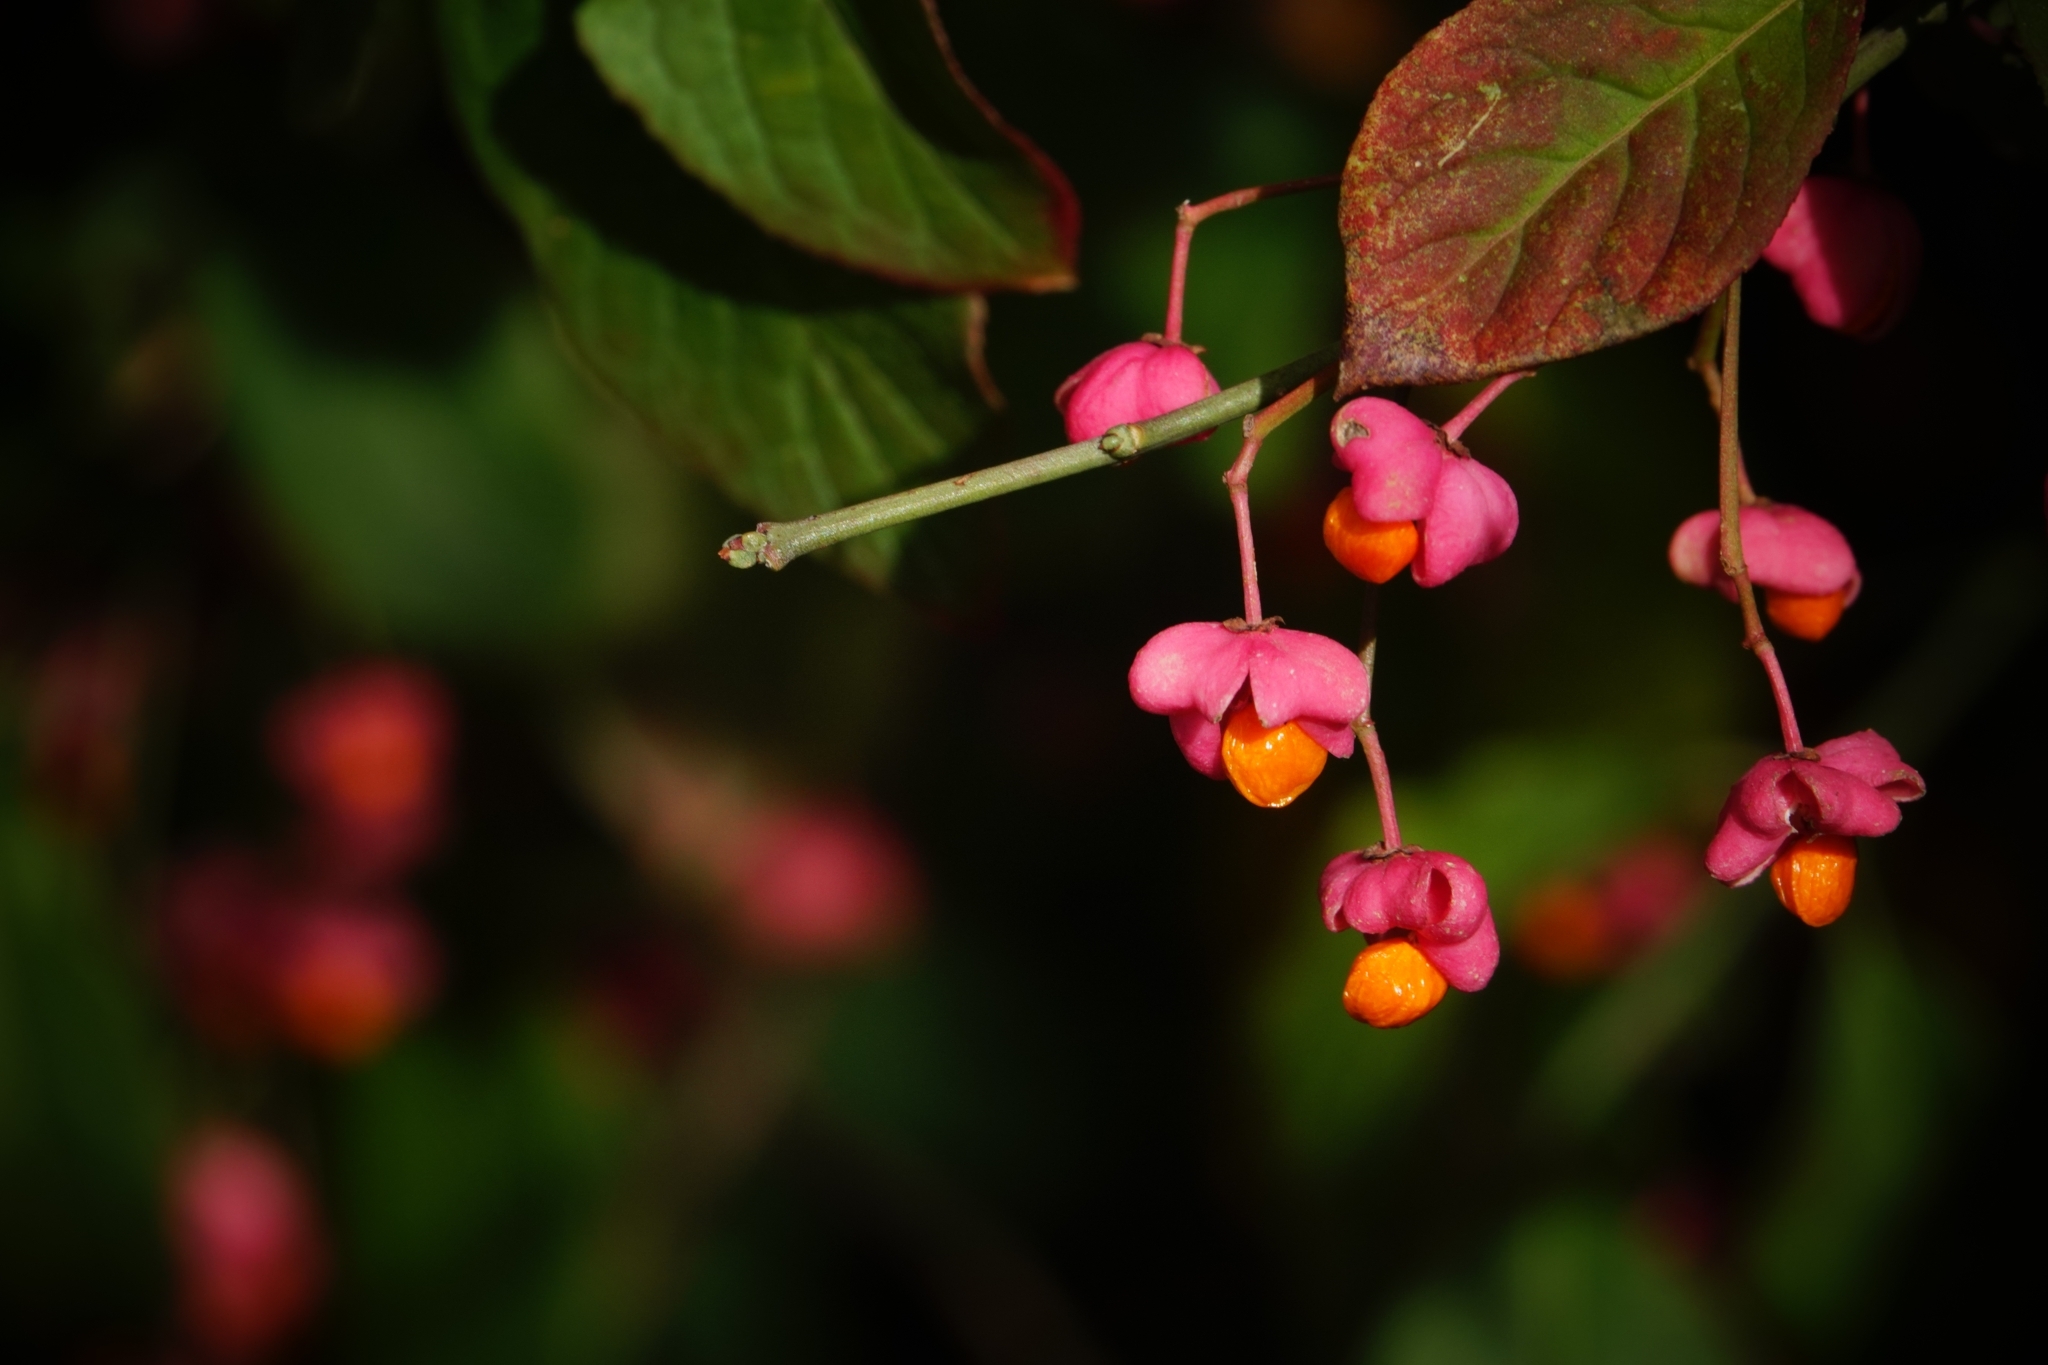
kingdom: Plantae
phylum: Tracheophyta
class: Magnoliopsida
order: Celastrales
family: Celastraceae
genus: Euonymus
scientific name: Euonymus europaeus
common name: Spindle
